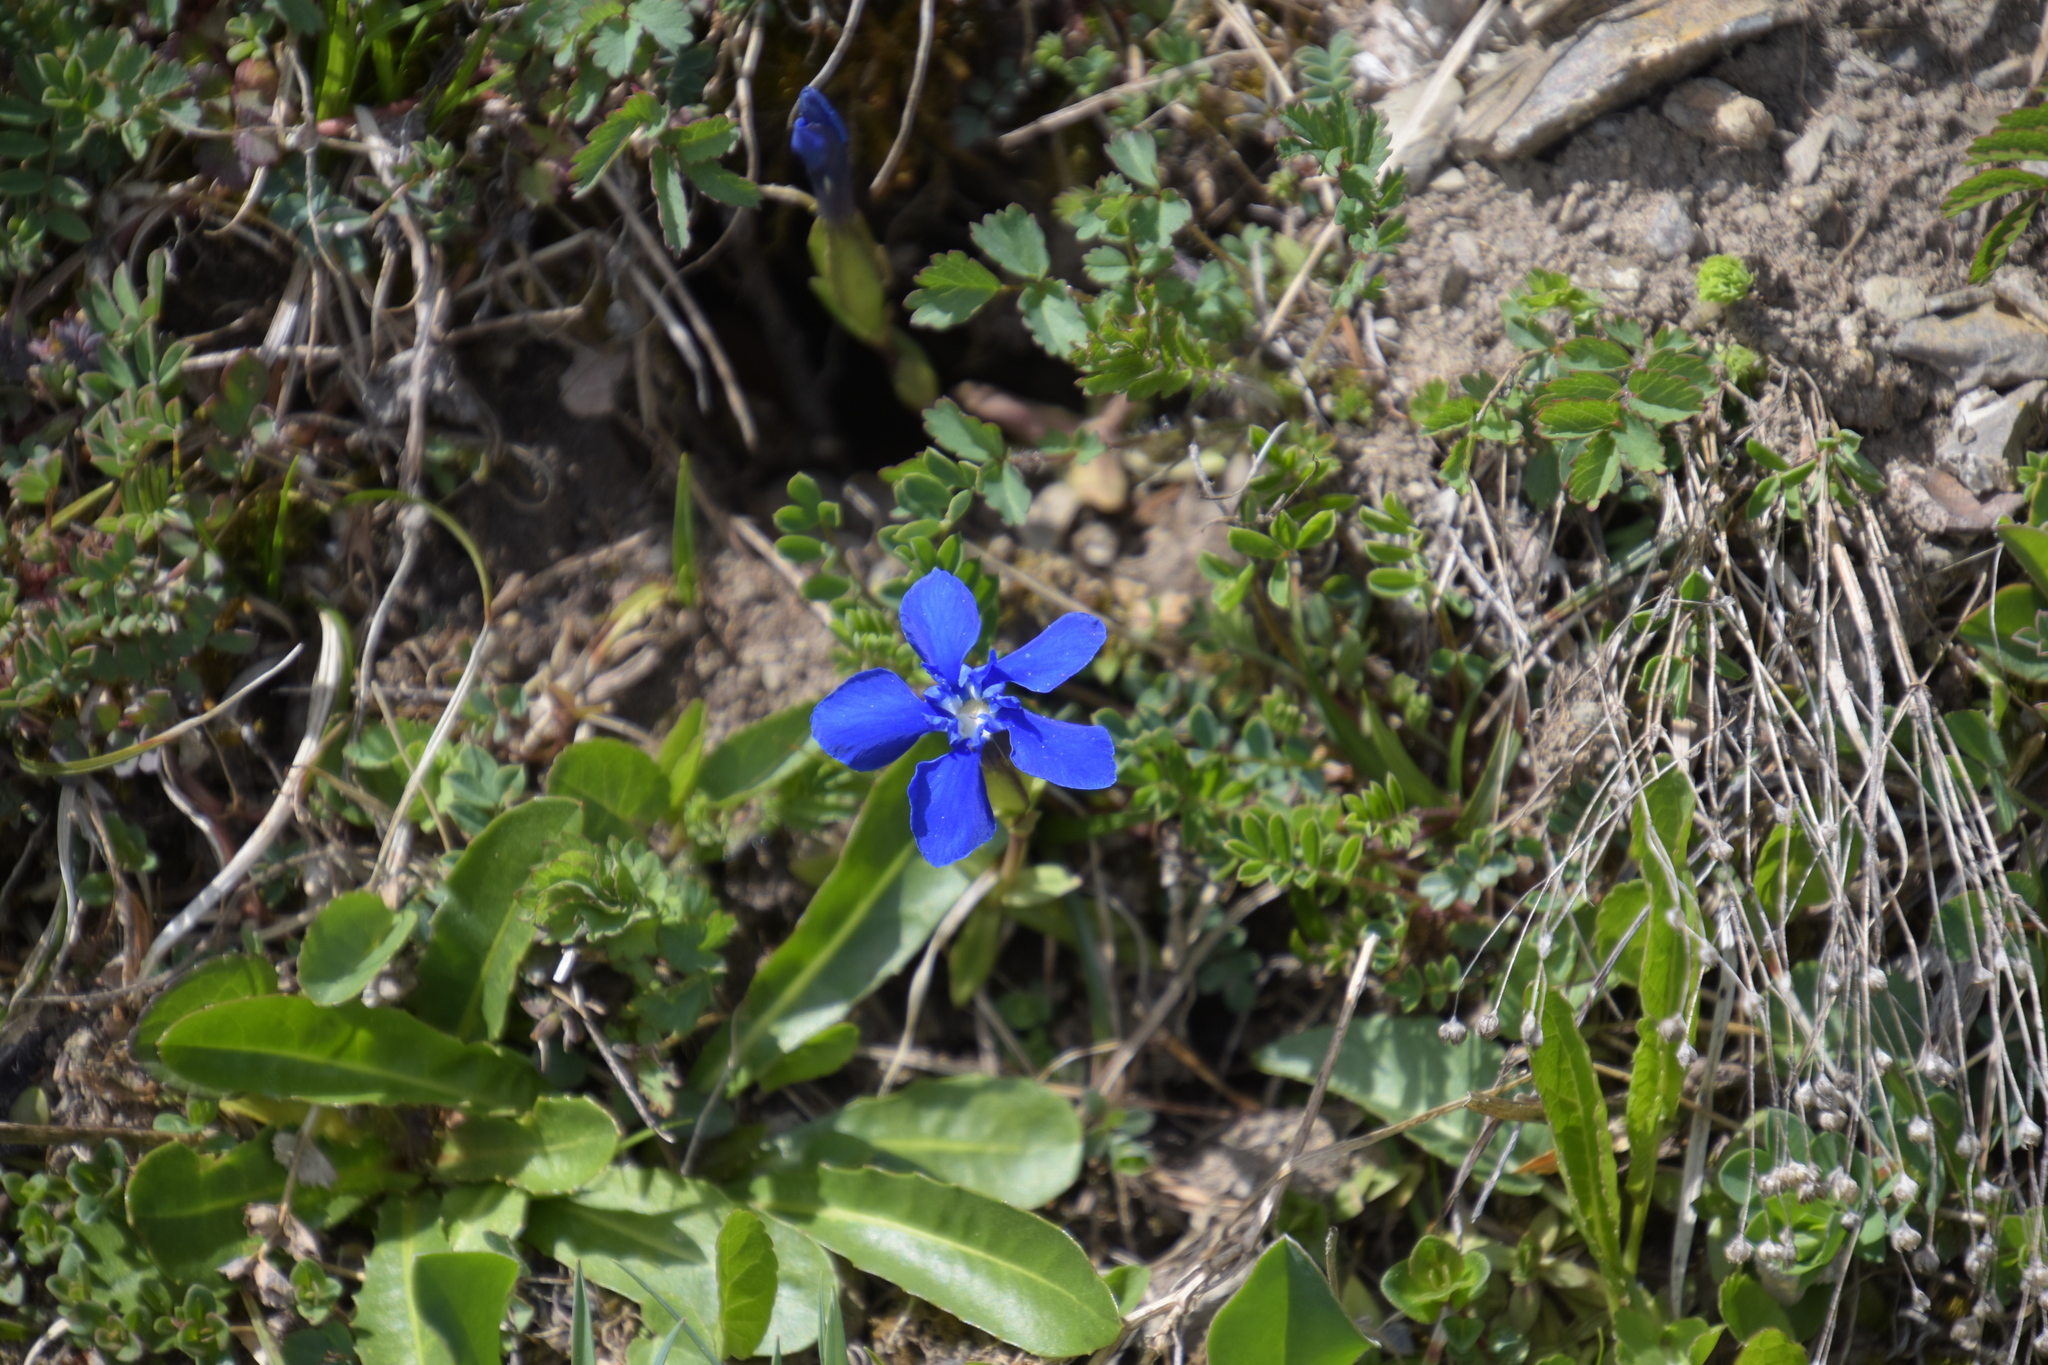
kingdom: Plantae
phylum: Tracheophyta
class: Magnoliopsida
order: Gentianales
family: Gentianaceae
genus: Gentiana
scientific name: Gentiana verna
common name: Spring gentian
